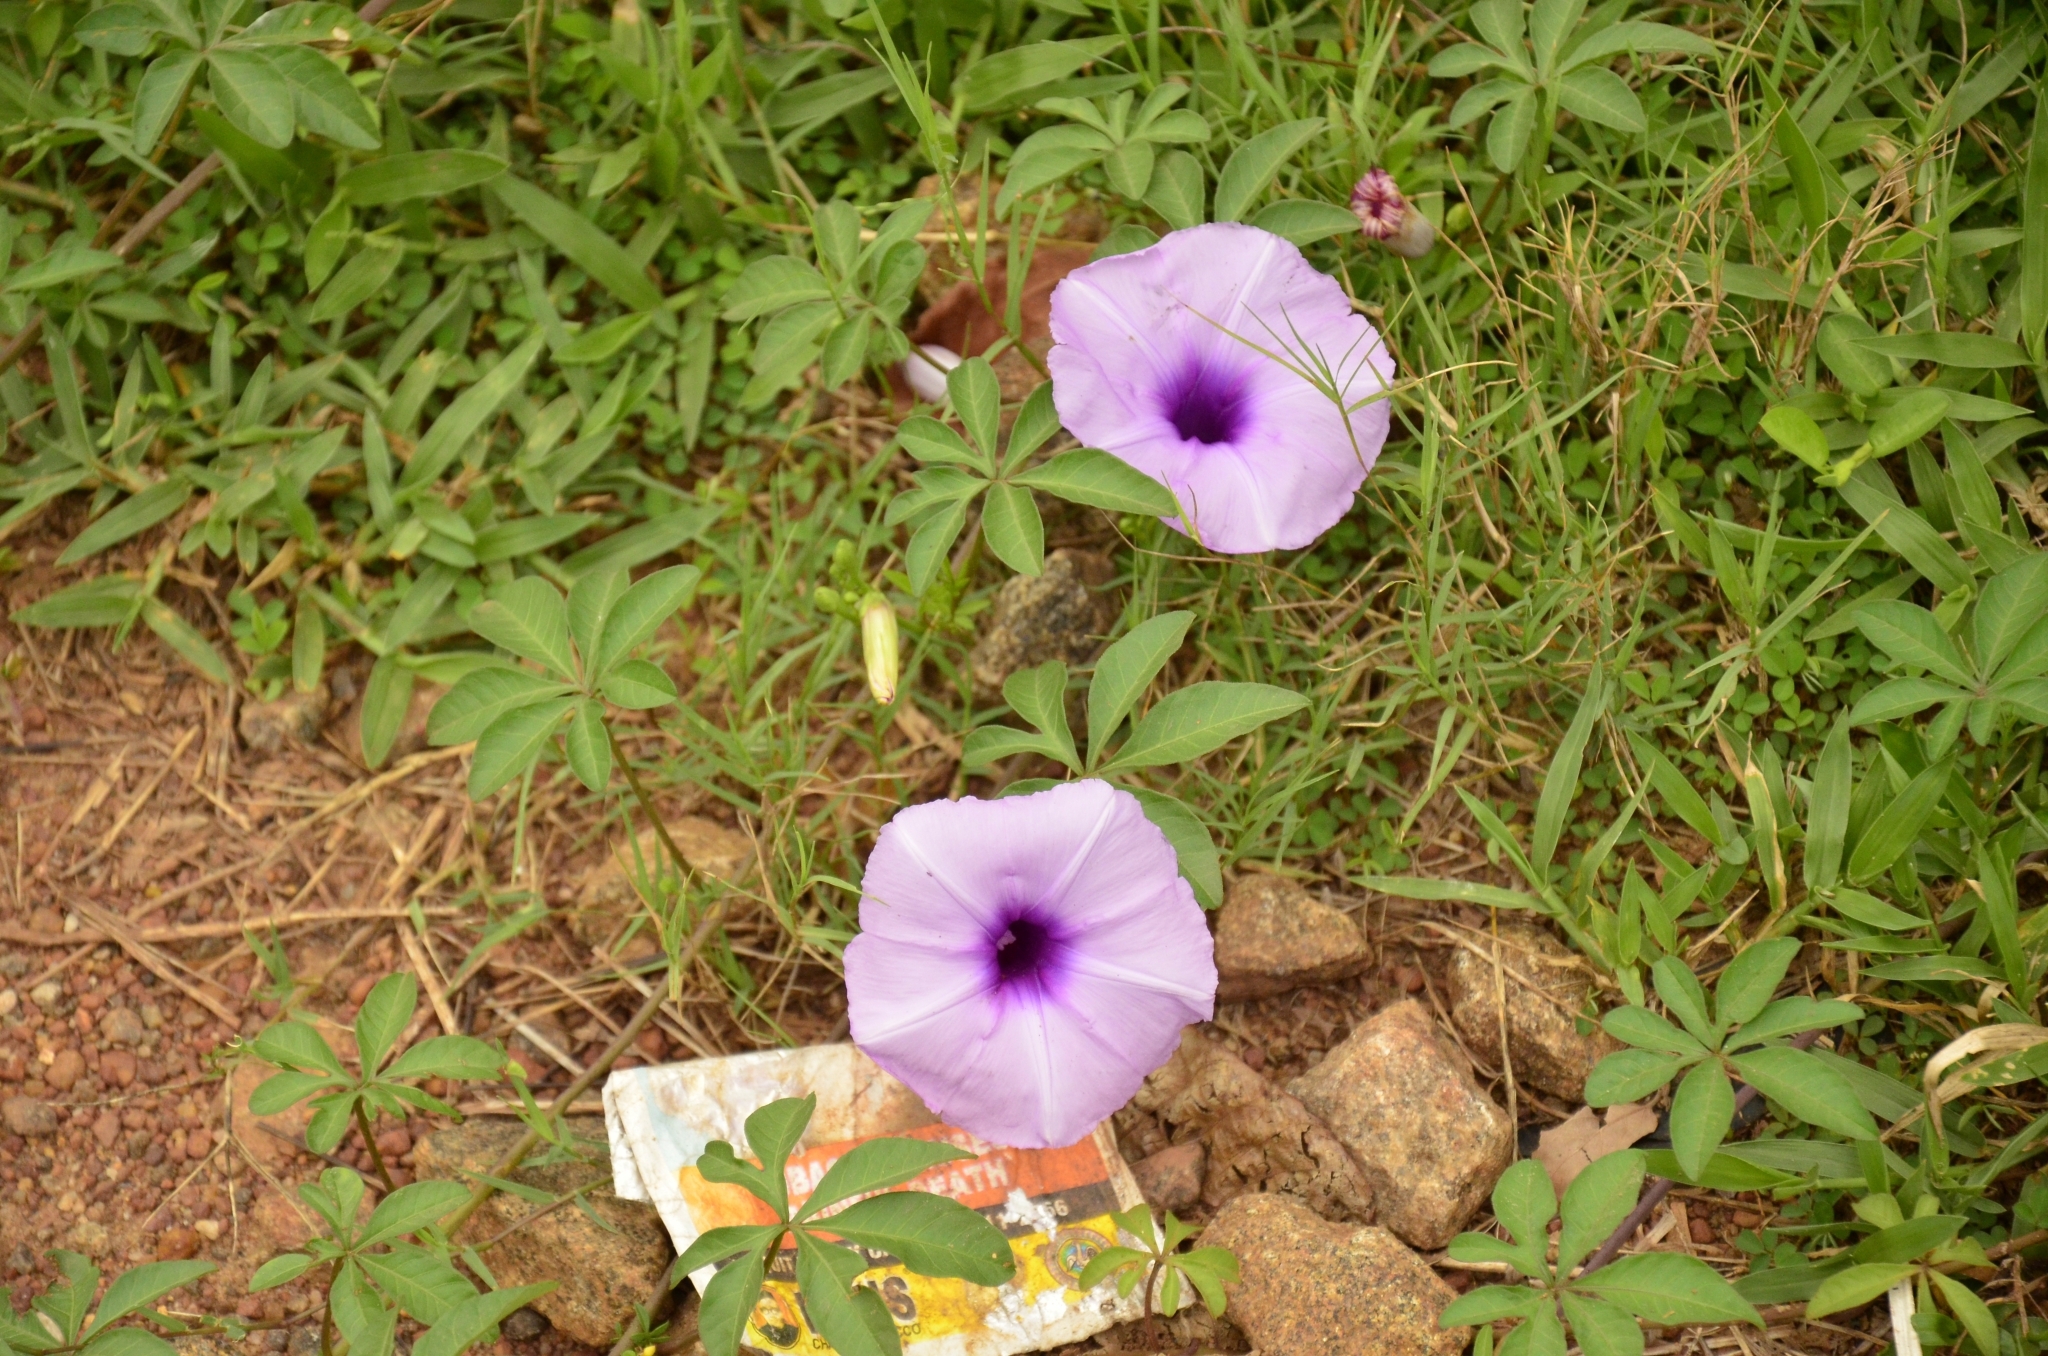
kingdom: Plantae
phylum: Tracheophyta
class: Magnoliopsida
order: Solanales
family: Convolvulaceae
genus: Ipomoea
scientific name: Ipomoea cairica
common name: Mile a minute vine
